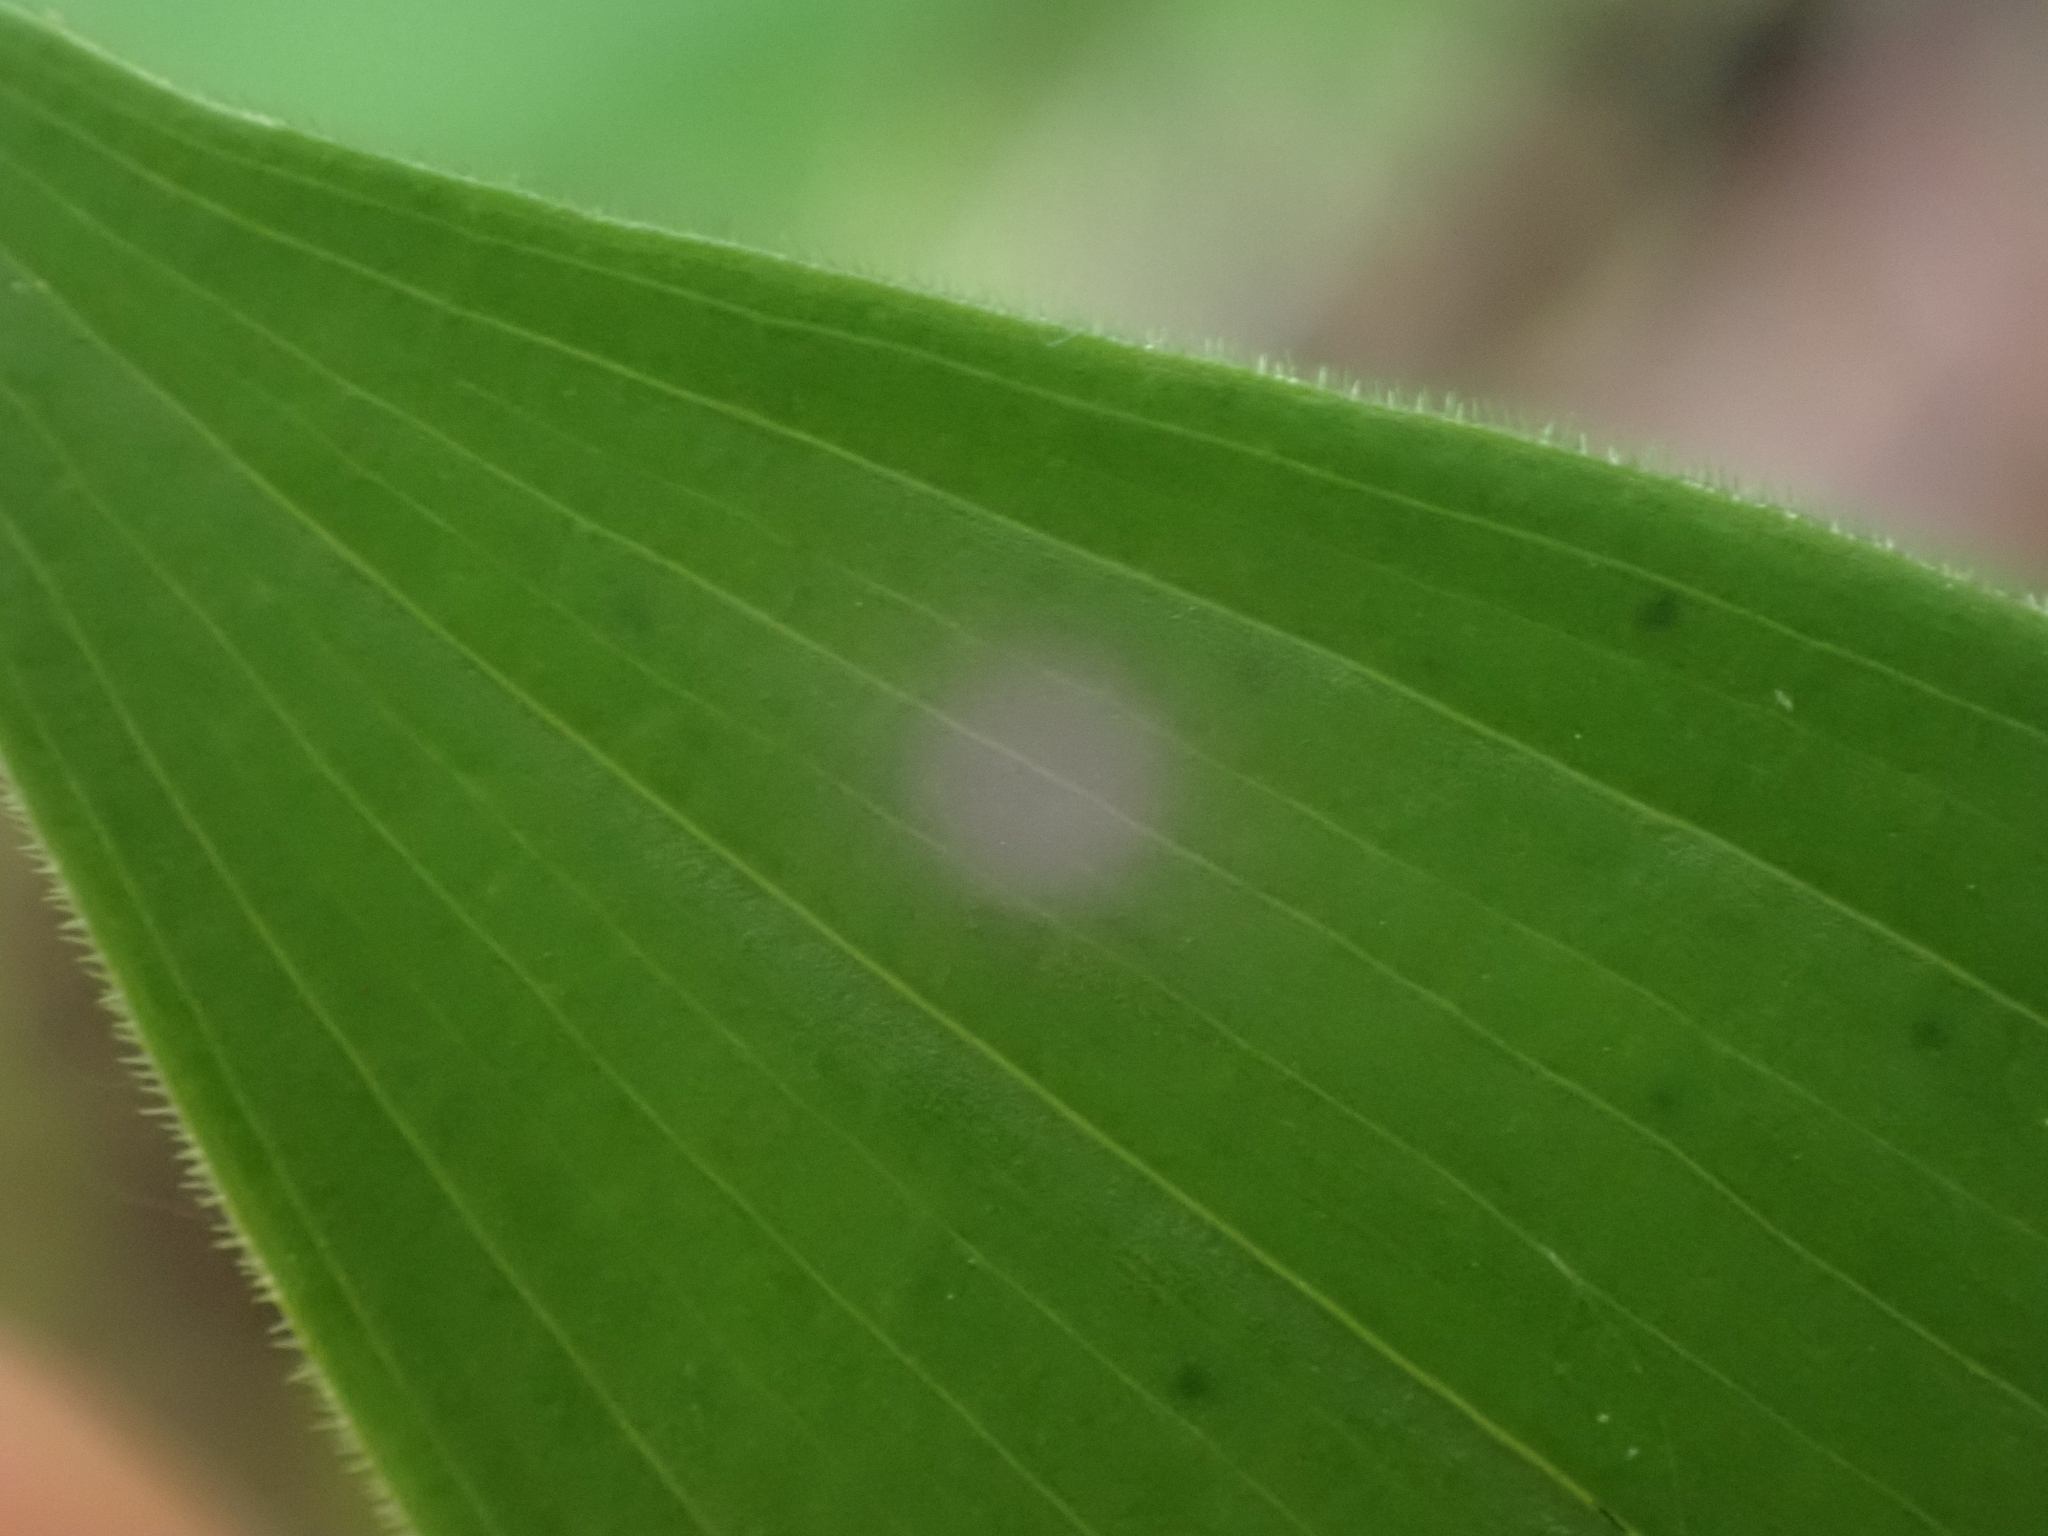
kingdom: Plantae
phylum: Tracheophyta
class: Liliopsida
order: Asparagales
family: Asparagaceae
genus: Maianthemum
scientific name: Maianthemum stellatum
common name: Little false solomon's seal
